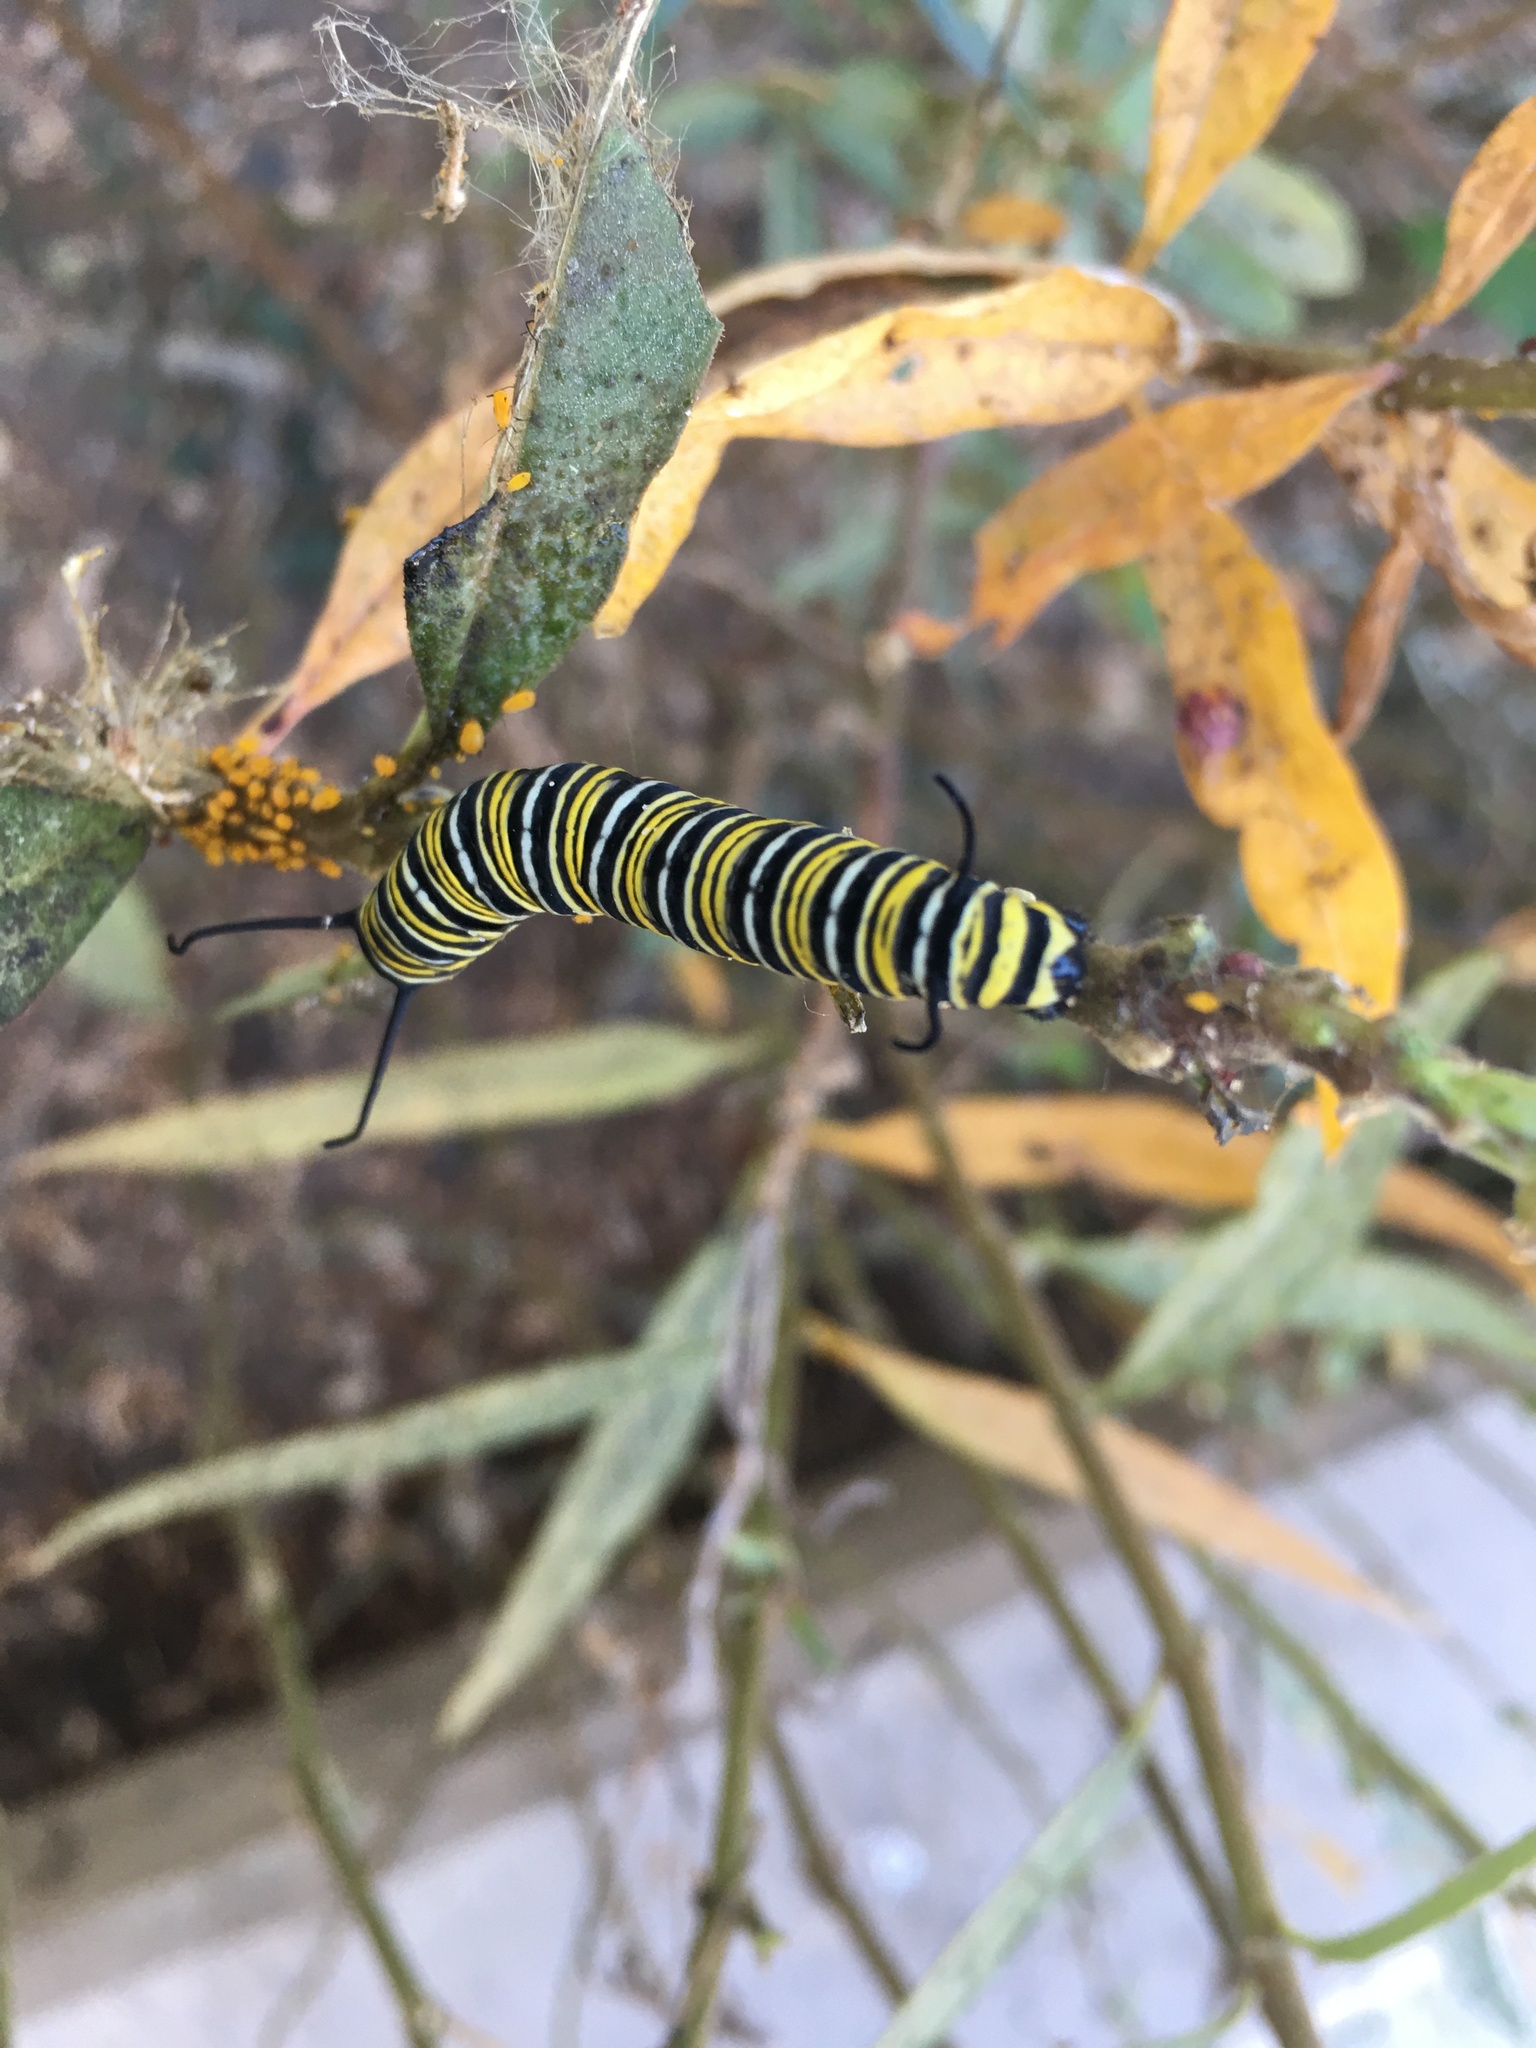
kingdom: Animalia
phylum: Arthropoda
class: Insecta
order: Lepidoptera
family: Nymphalidae
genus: Danaus
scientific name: Danaus plexippus
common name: Monarch
